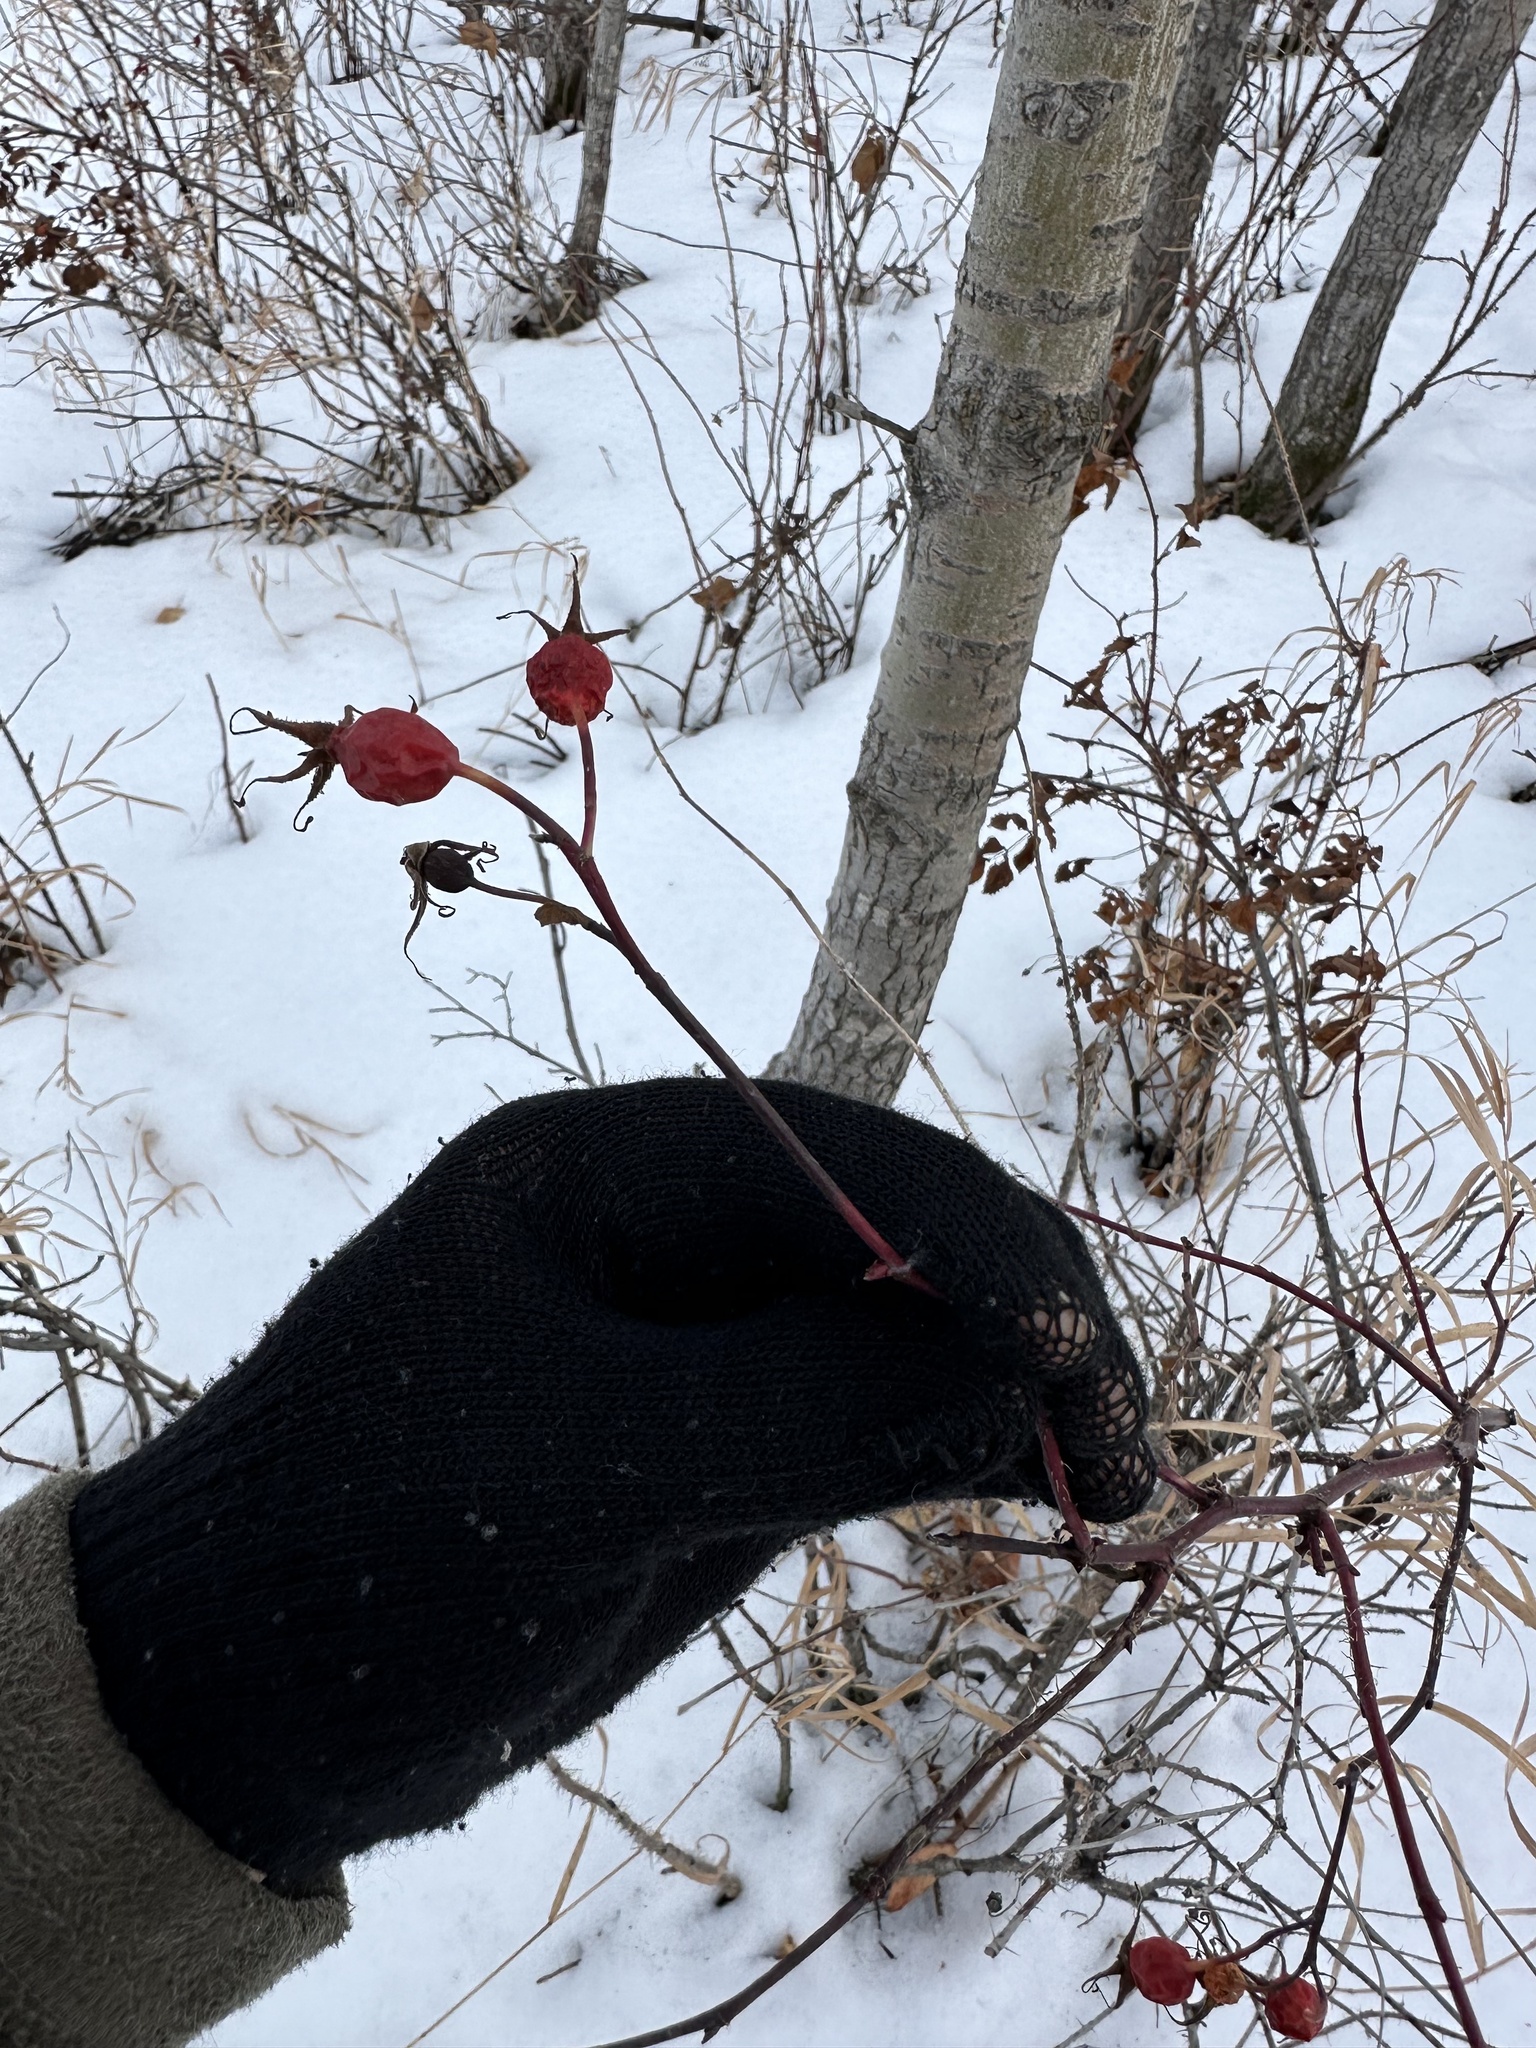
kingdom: Plantae
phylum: Tracheophyta
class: Magnoliopsida
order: Rosales
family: Rosaceae
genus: Rosa
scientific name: Rosa woodsii
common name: Woods's rose
